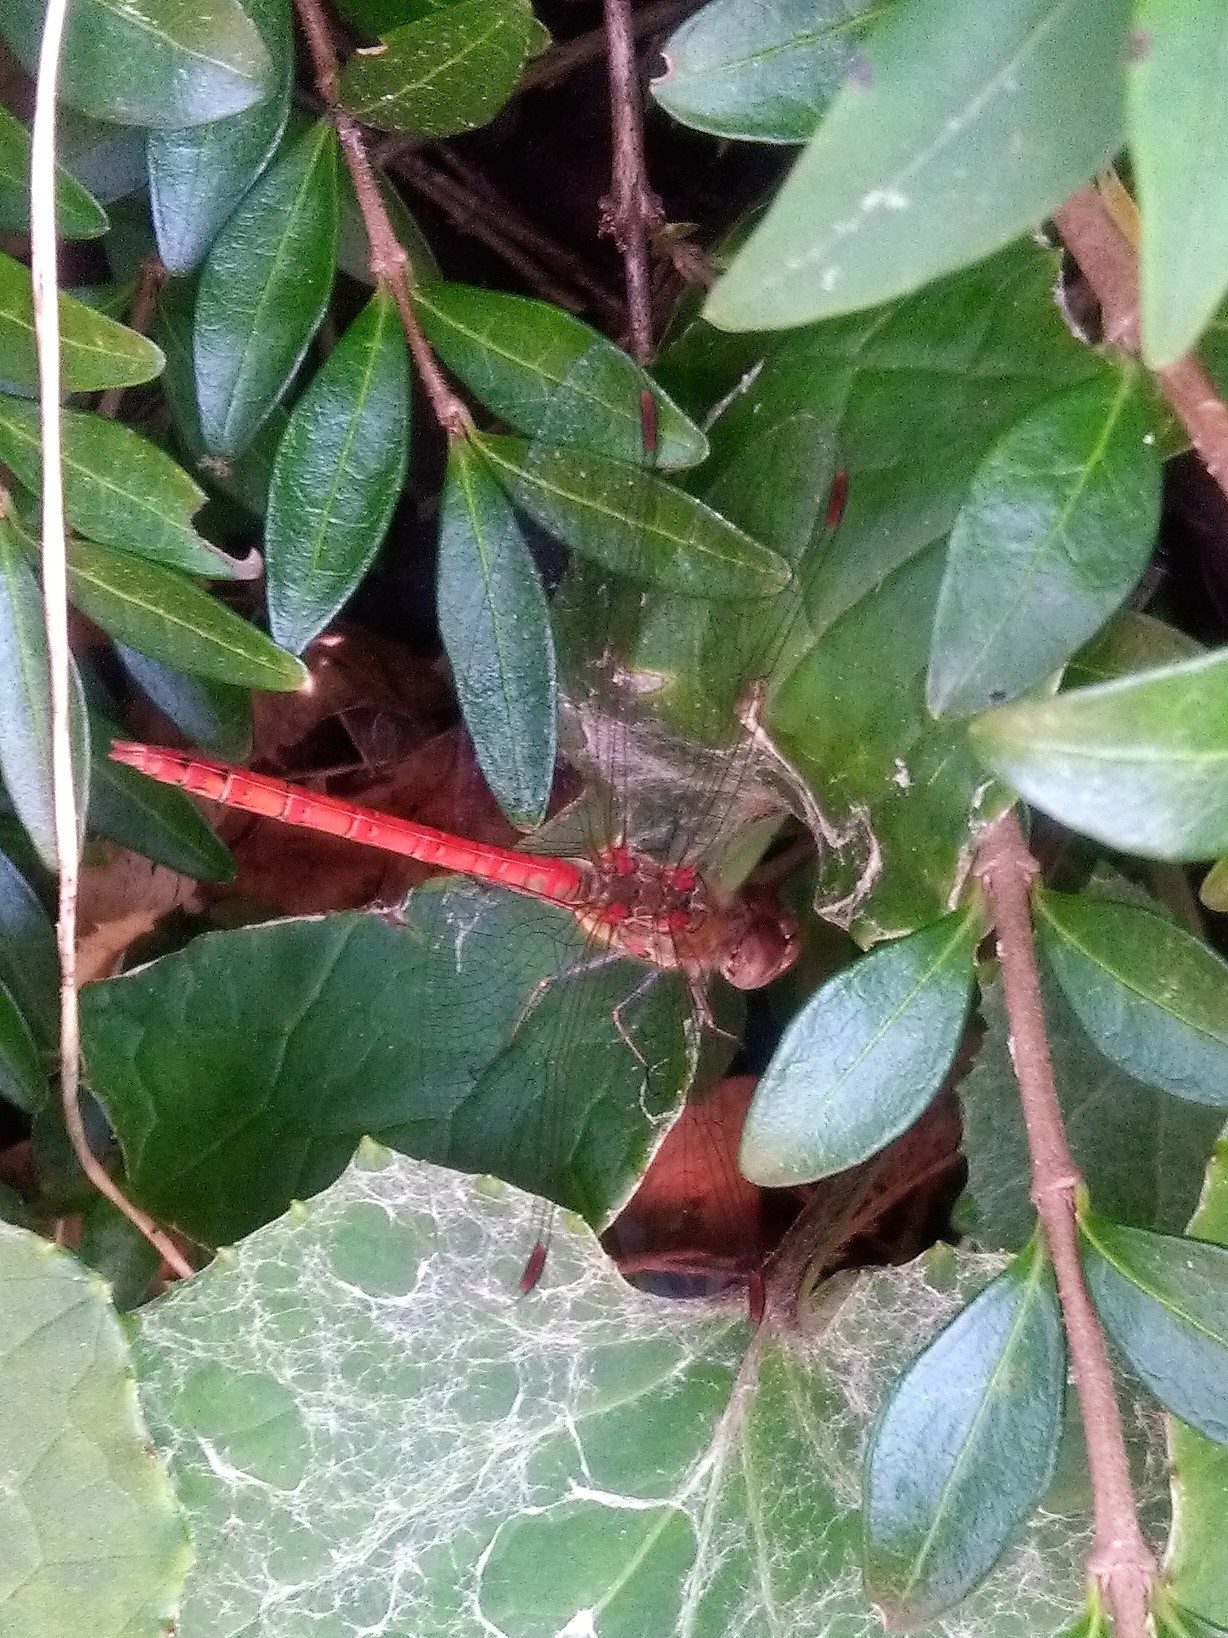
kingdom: Animalia
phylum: Arthropoda
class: Insecta
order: Odonata
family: Libellulidae
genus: Sympetrum
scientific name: Sympetrum striolatum
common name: Common darter
